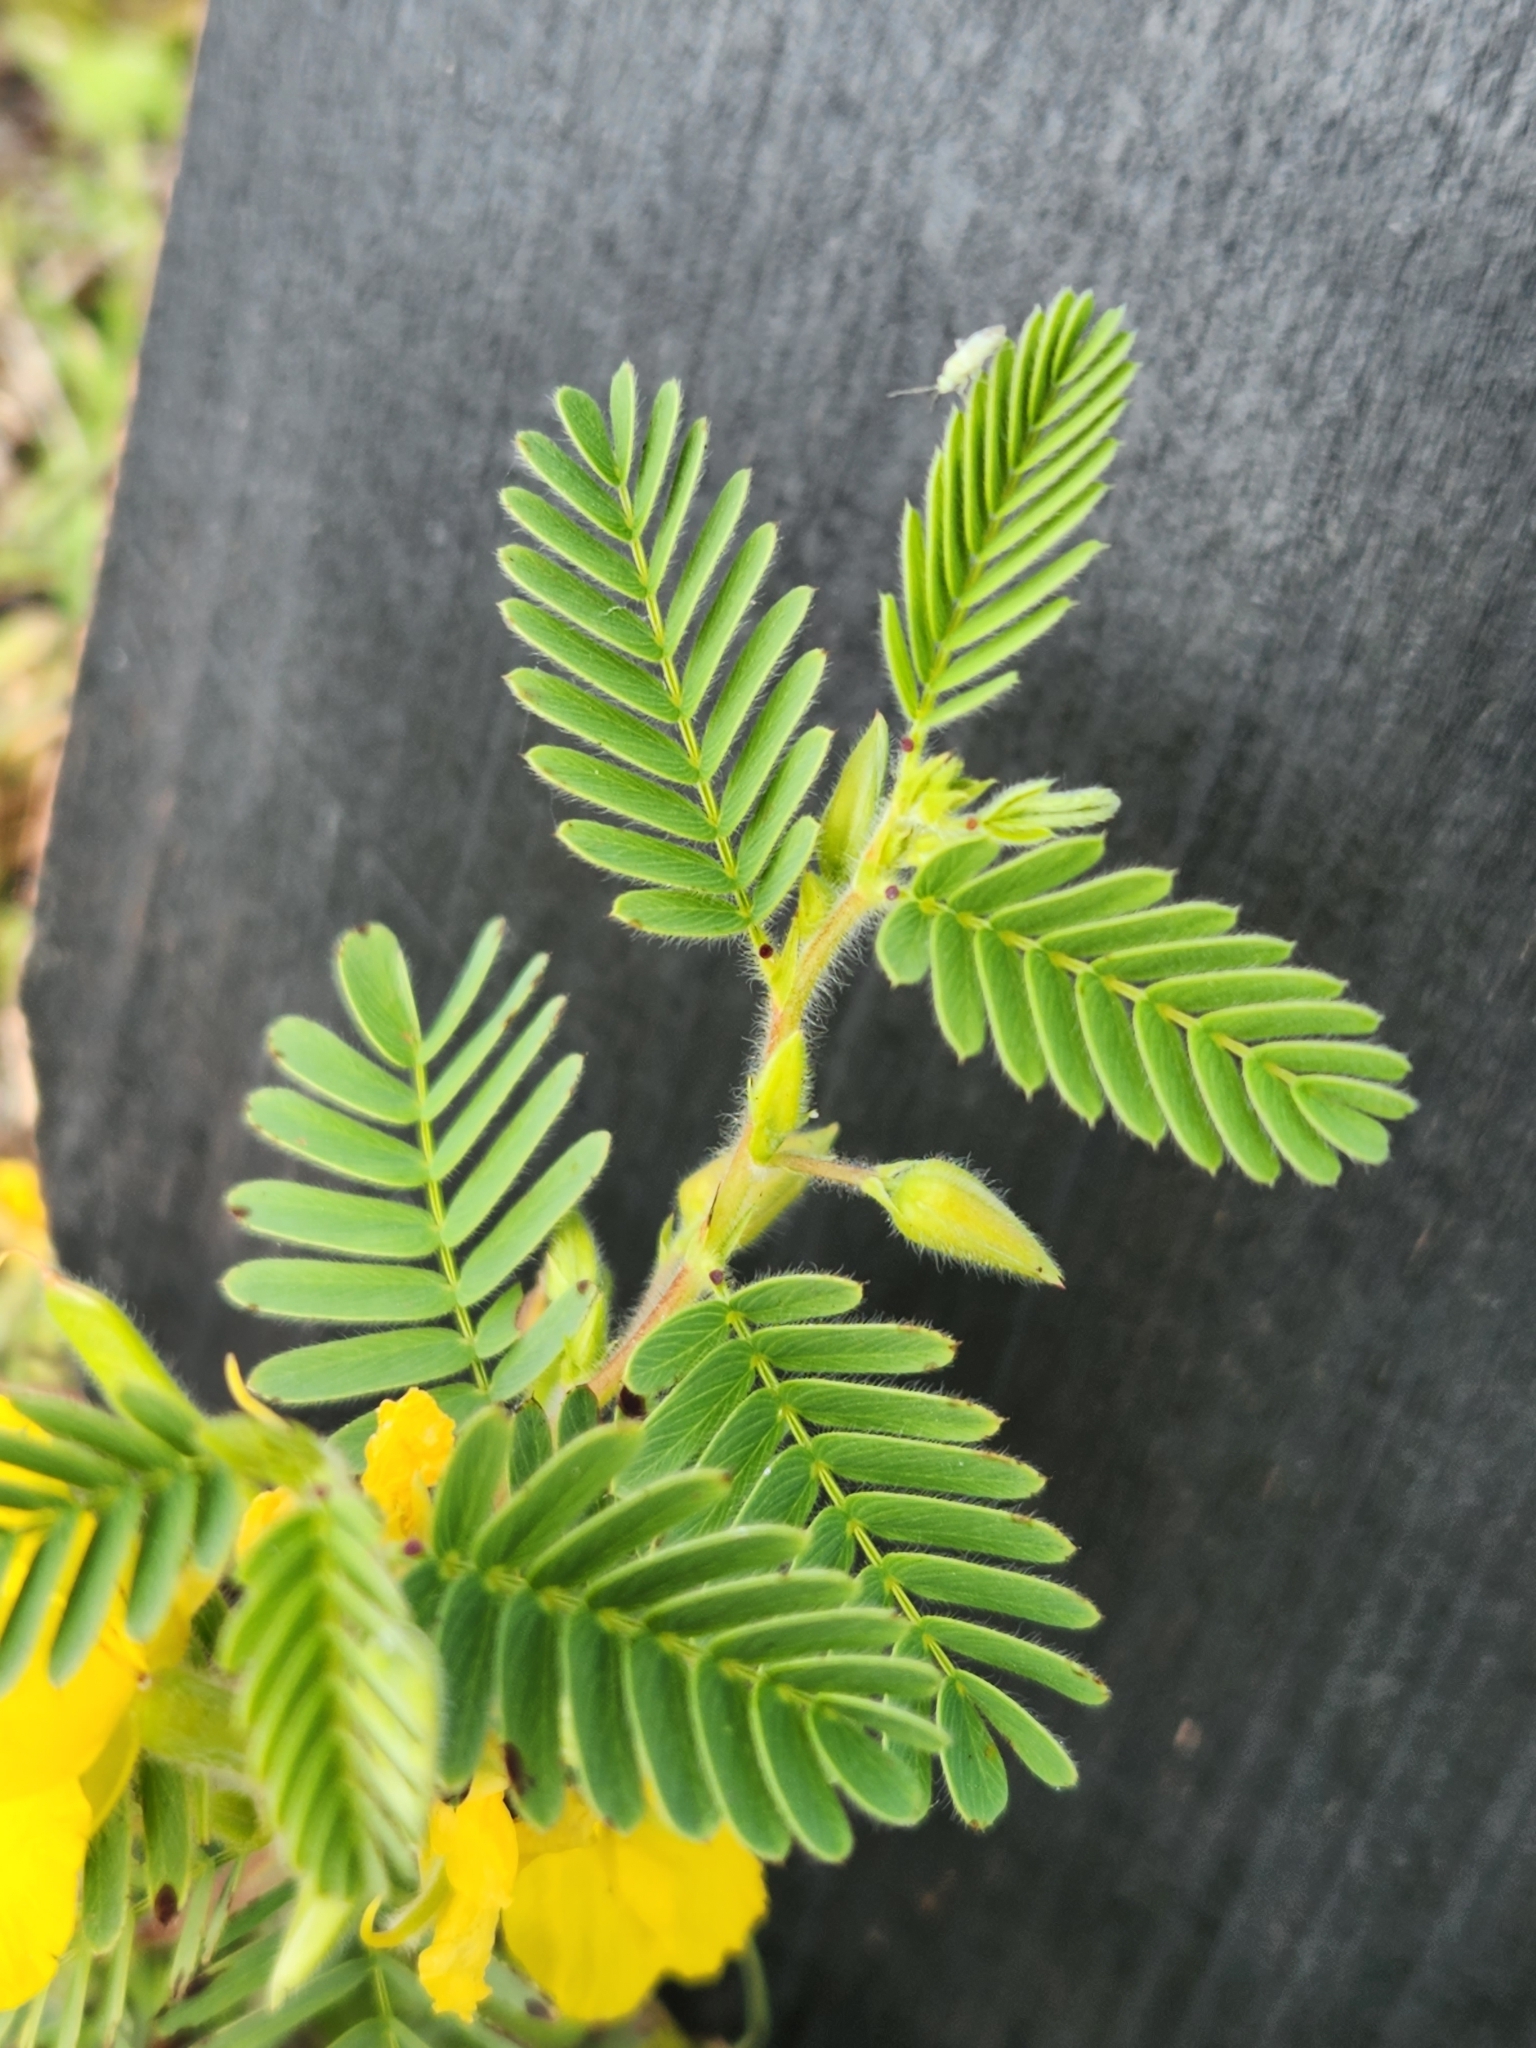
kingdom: Plantae
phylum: Tracheophyta
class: Magnoliopsida
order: Fabales
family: Fabaceae
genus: Chamaecrista
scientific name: Chamaecrista fasciculata
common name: Golden cassia
